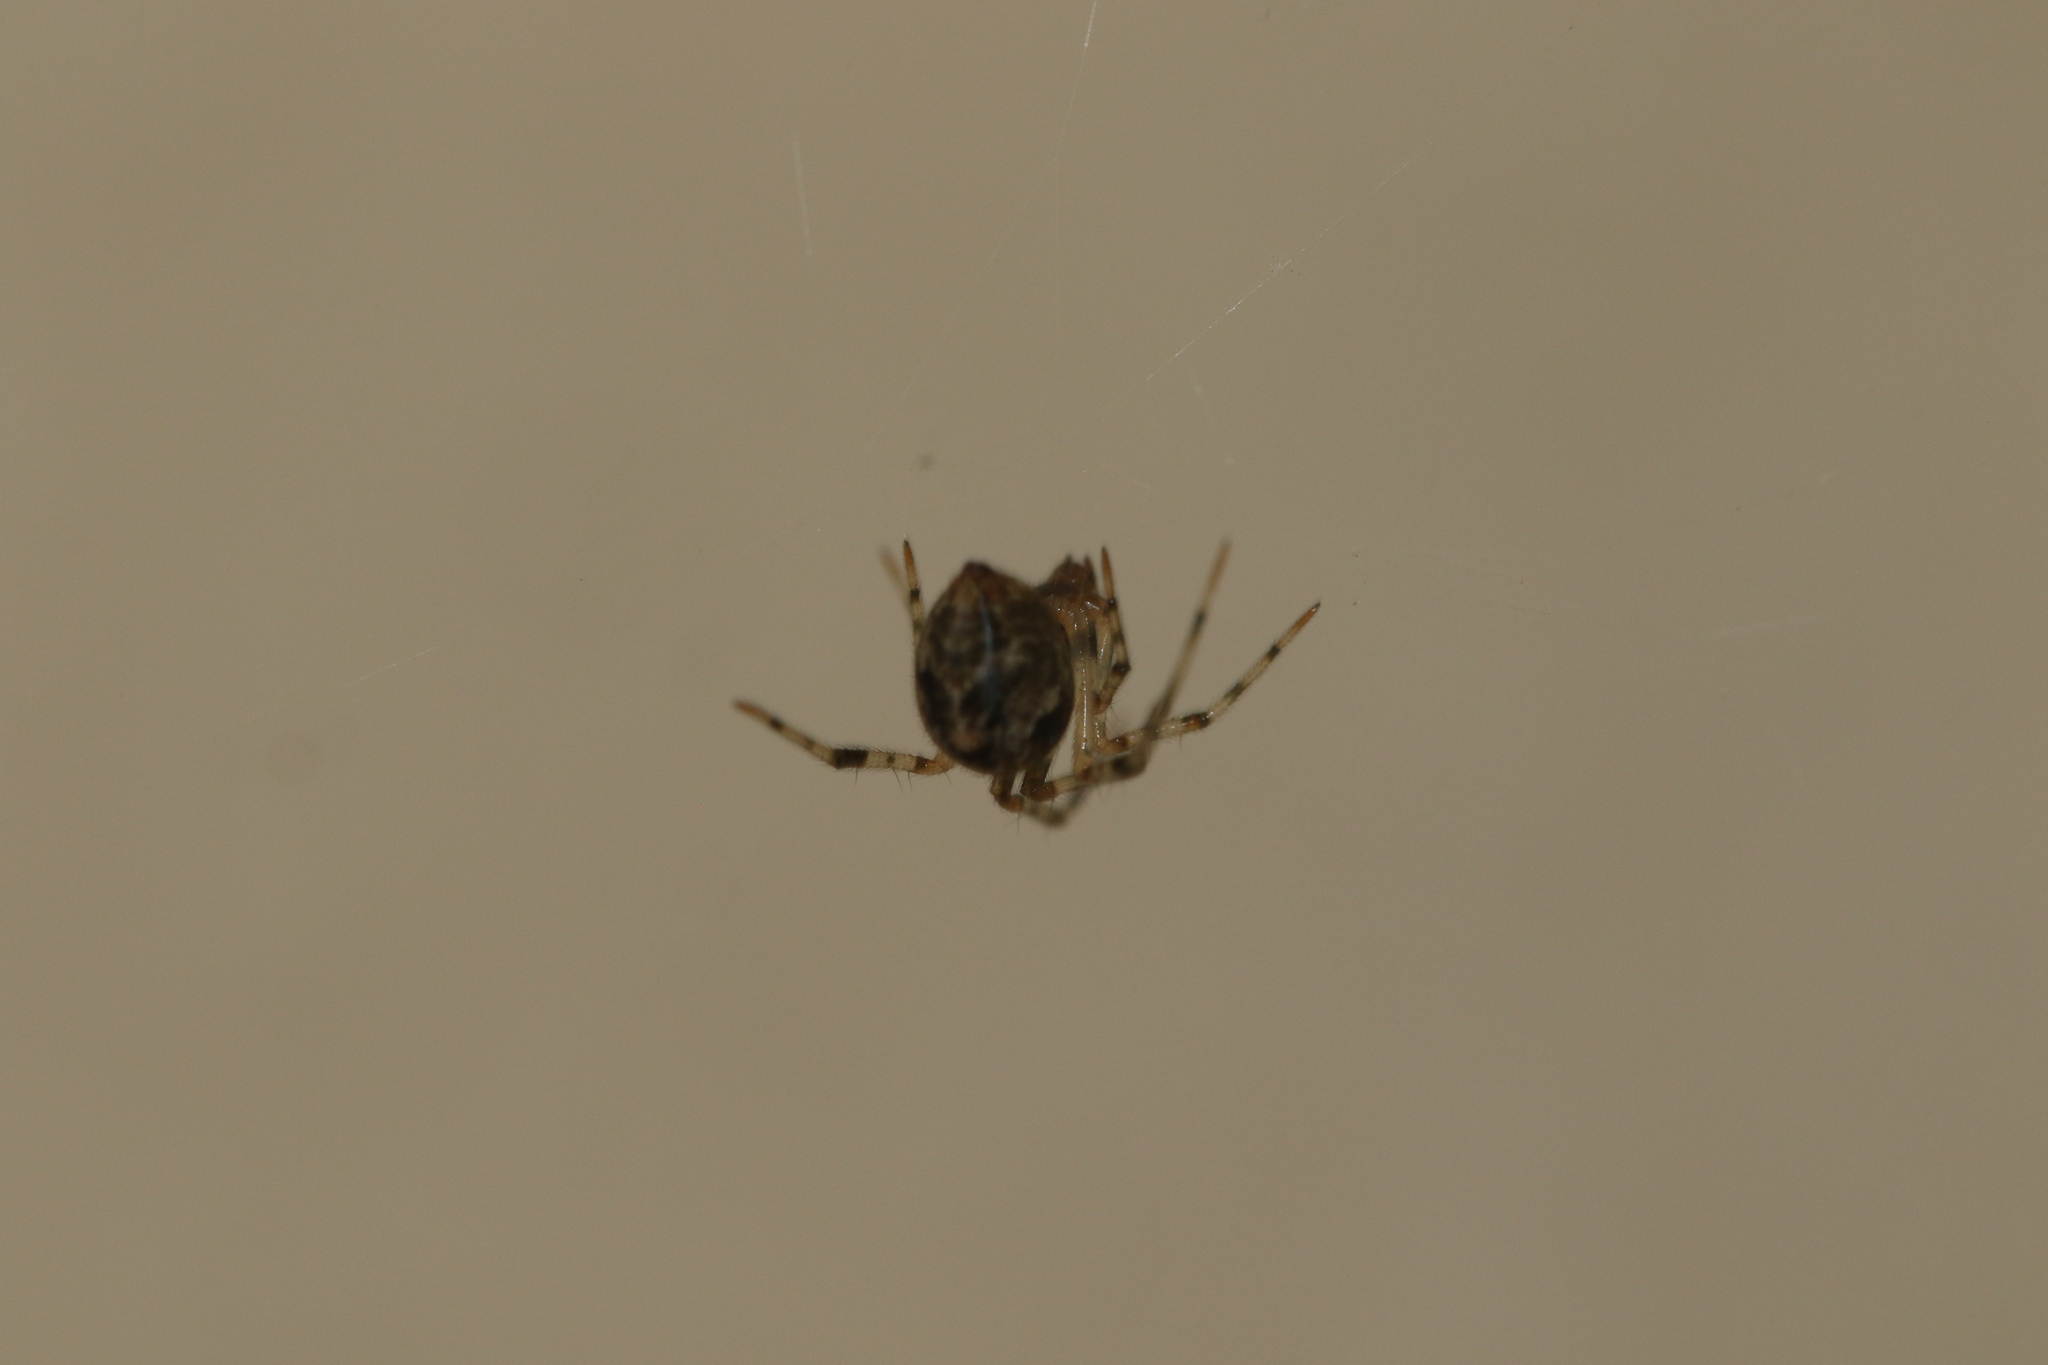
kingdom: Animalia
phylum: Arthropoda
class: Arachnida
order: Araneae
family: Theridiidae
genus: Parasteatoda
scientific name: Parasteatoda tepidariorum
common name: Common house spider
